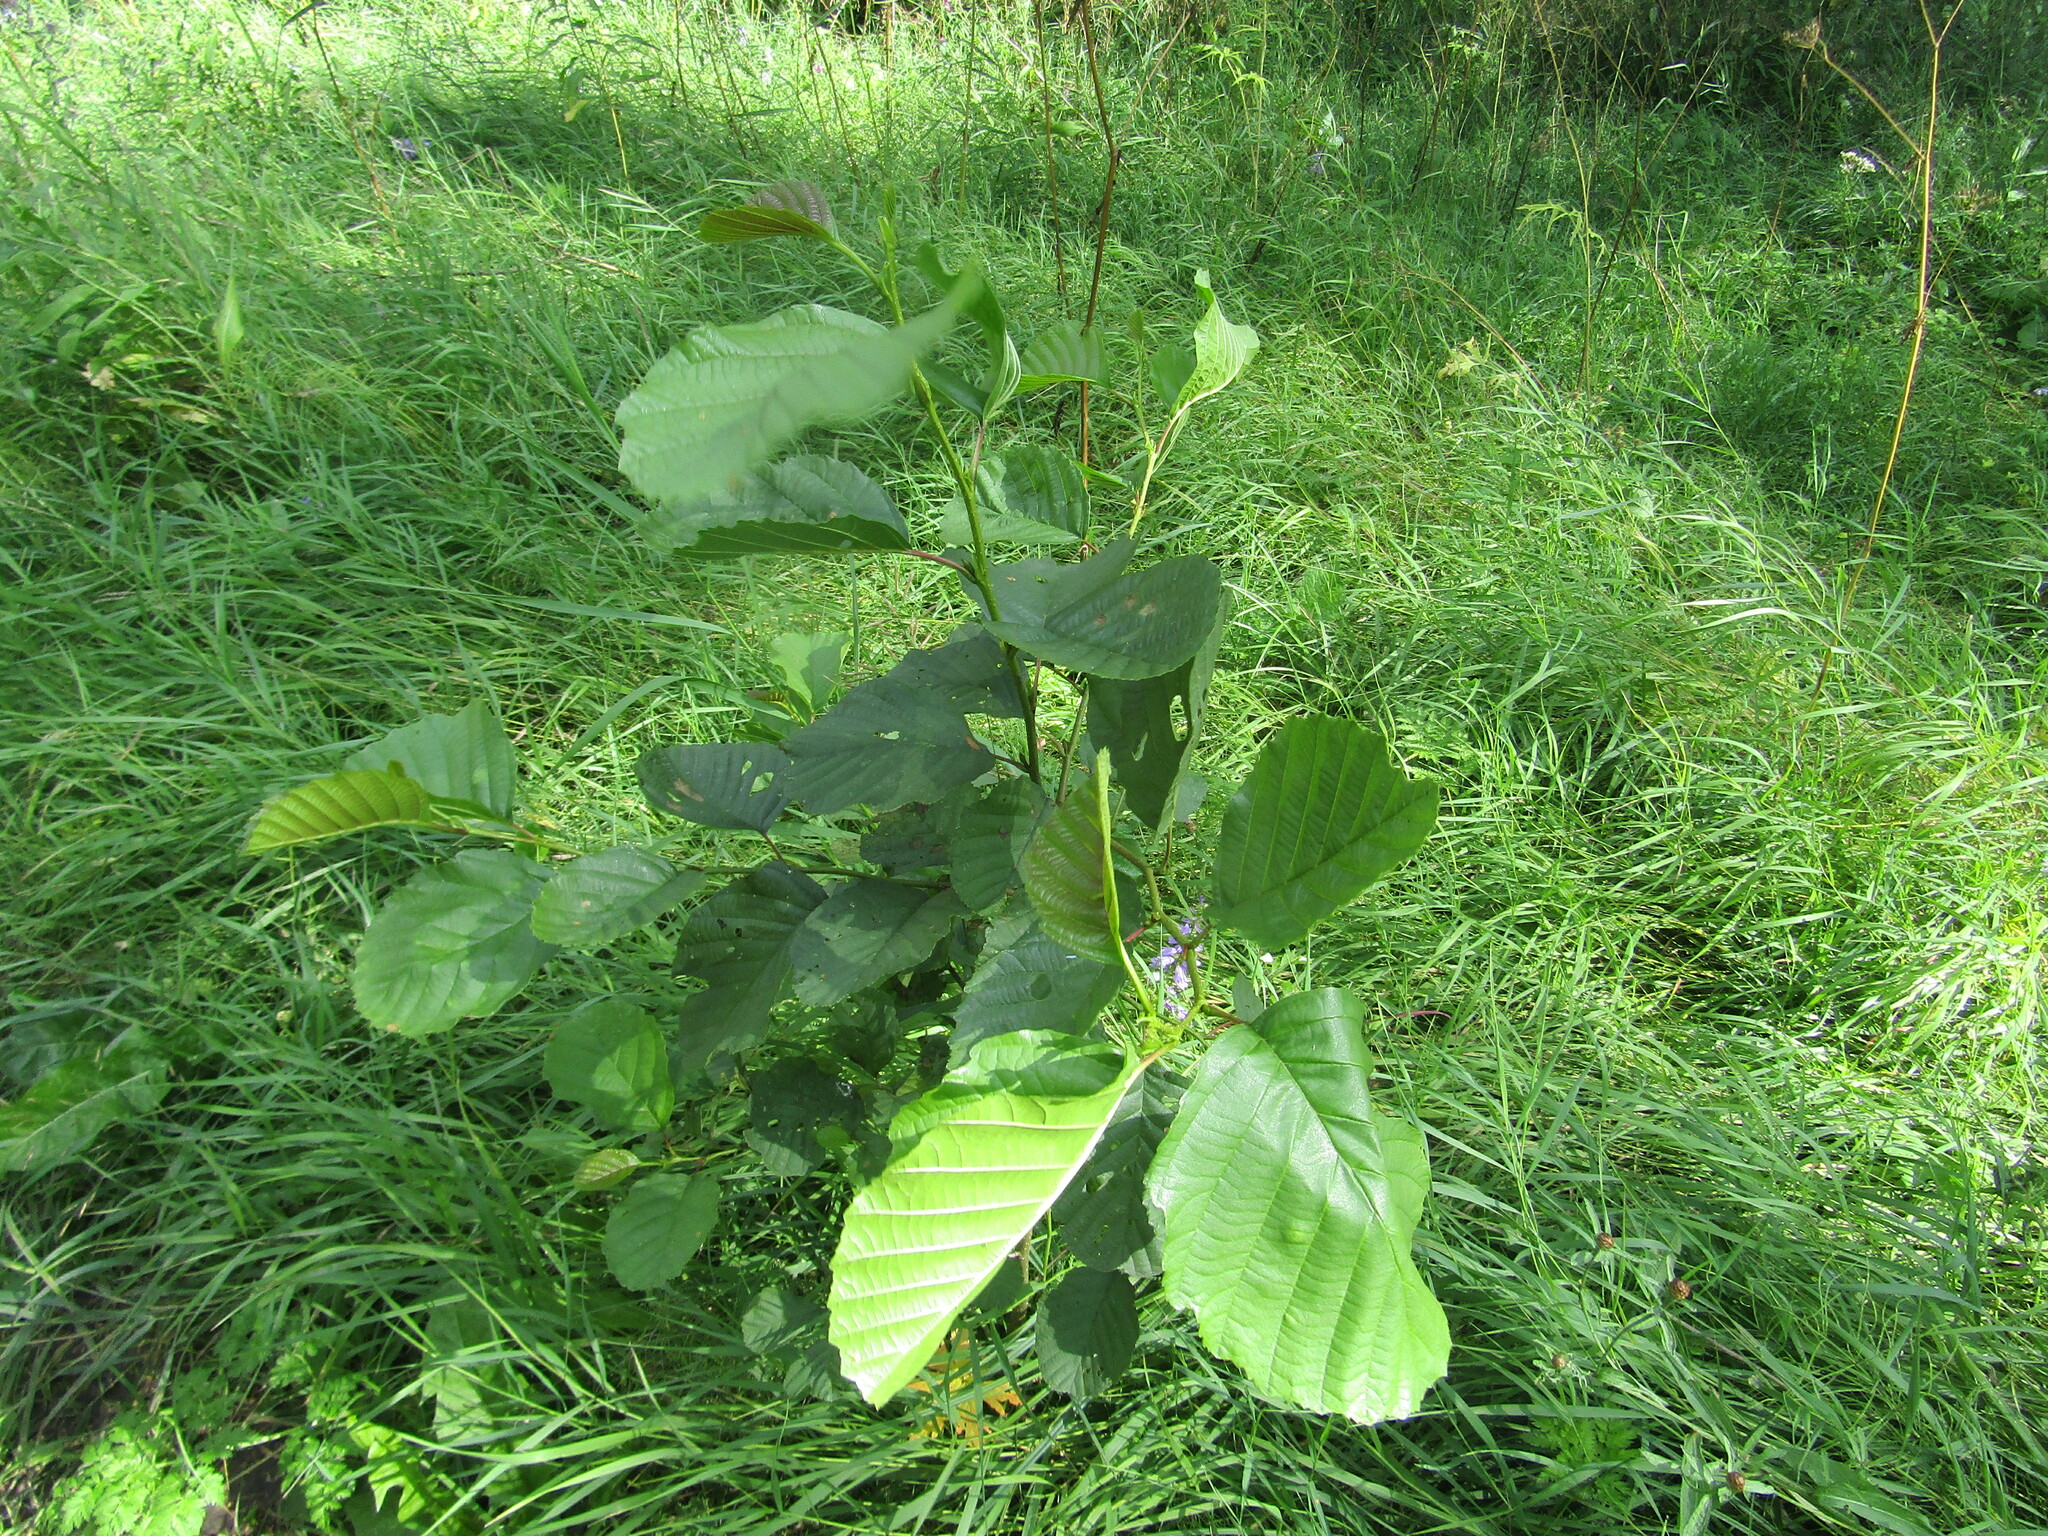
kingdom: Plantae
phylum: Tracheophyta
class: Magnoliopsida
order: Fagales
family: Betulaceae
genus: Alnus
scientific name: Alnus glutinosa
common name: Black alder
